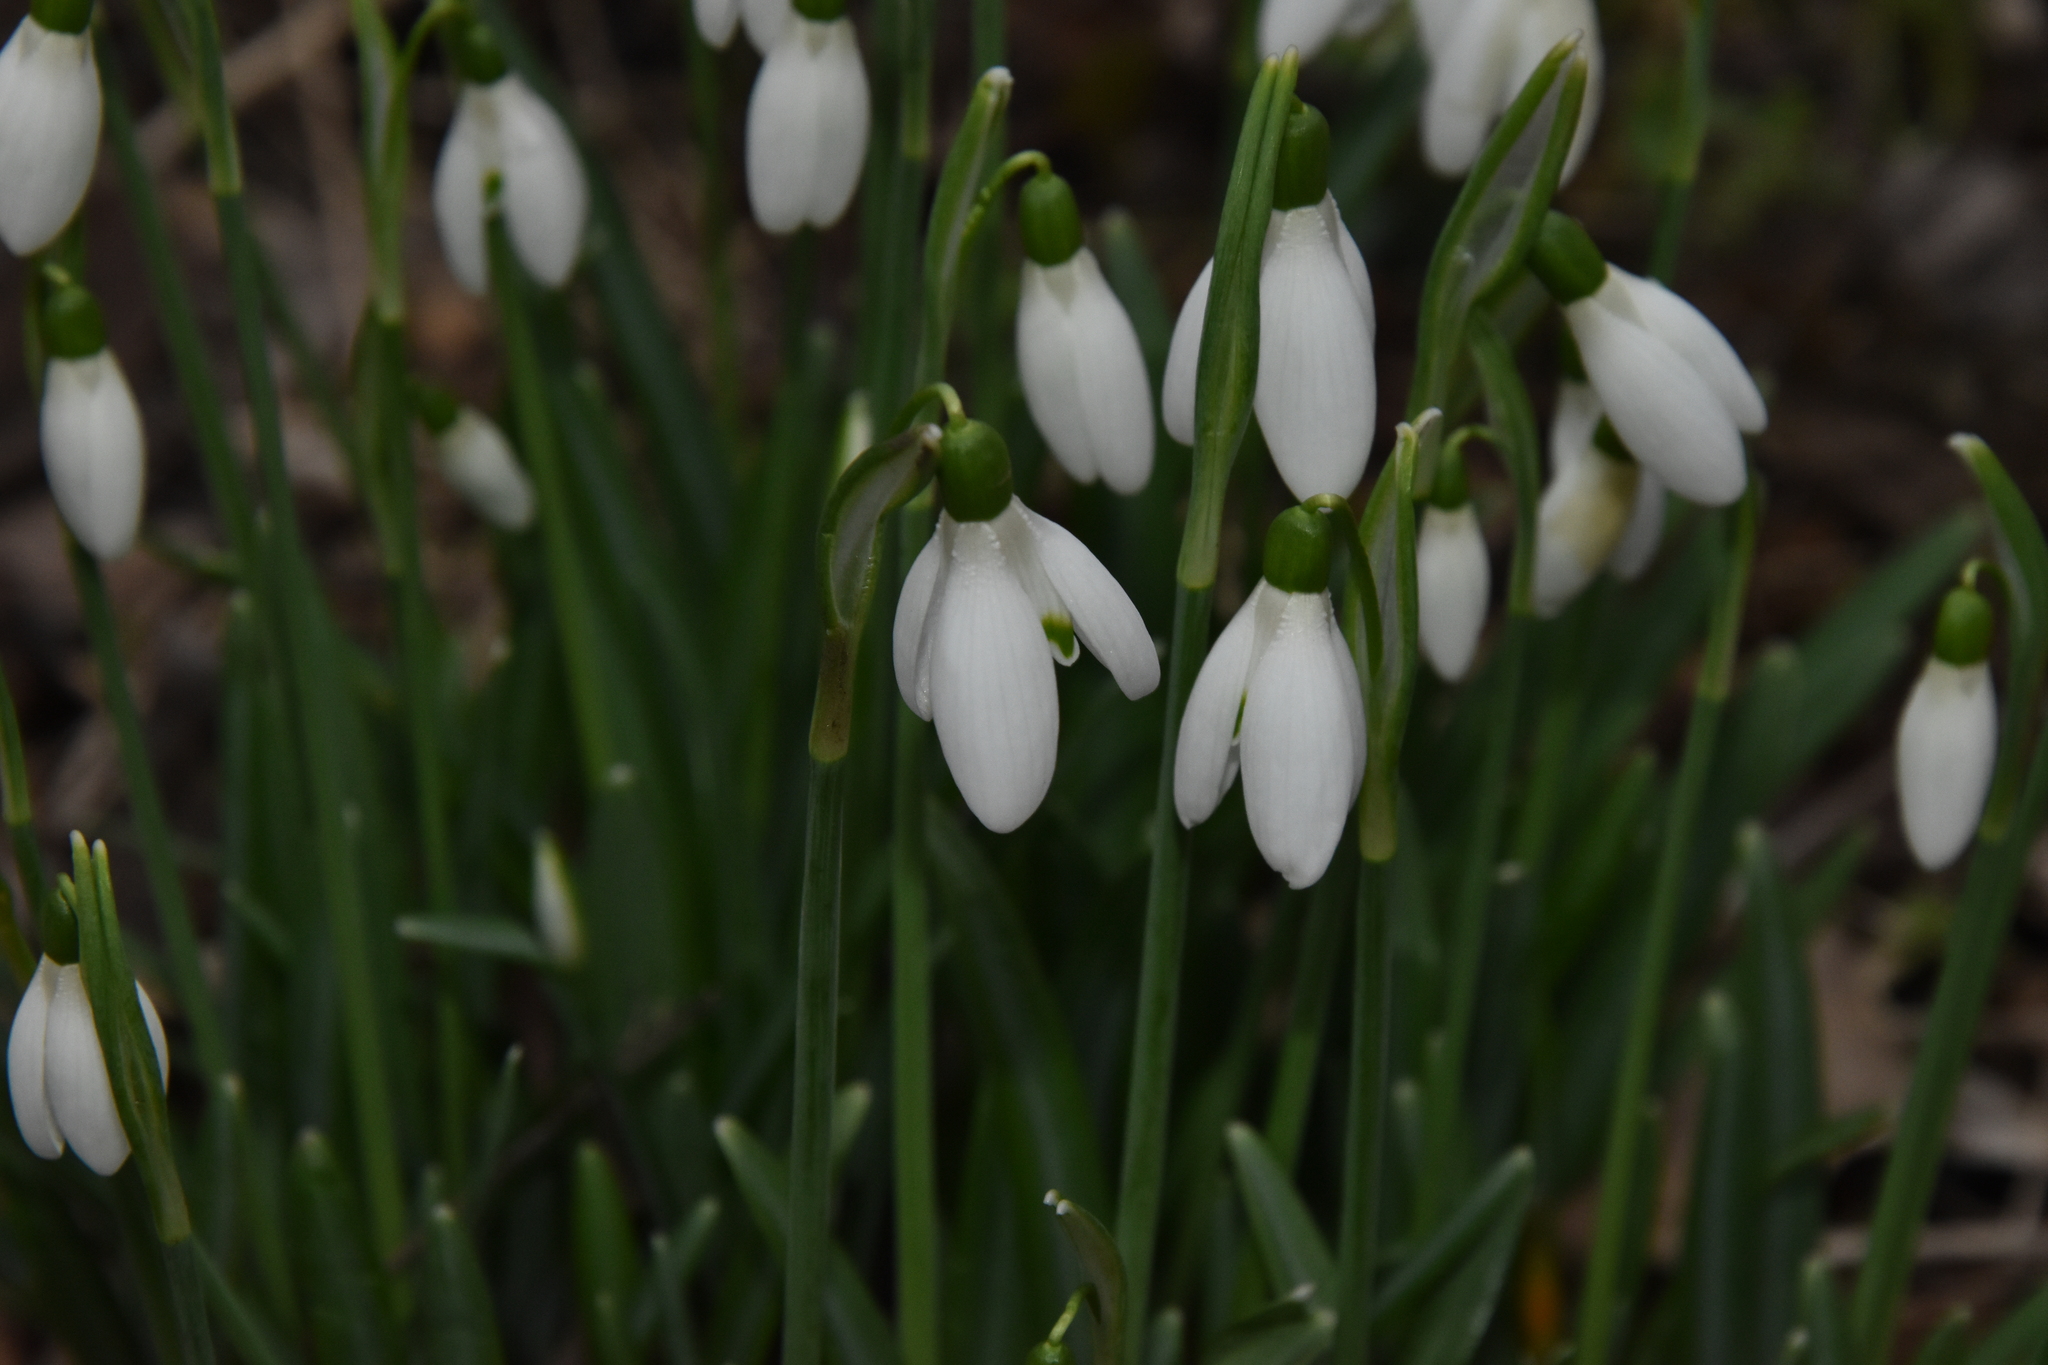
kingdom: Plantae
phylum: Tracheophyta
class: Liliopsida
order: Asparagales
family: Amaryllidaceae
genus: Galanthus
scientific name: Galanthus nivalis
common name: Snowdrop
